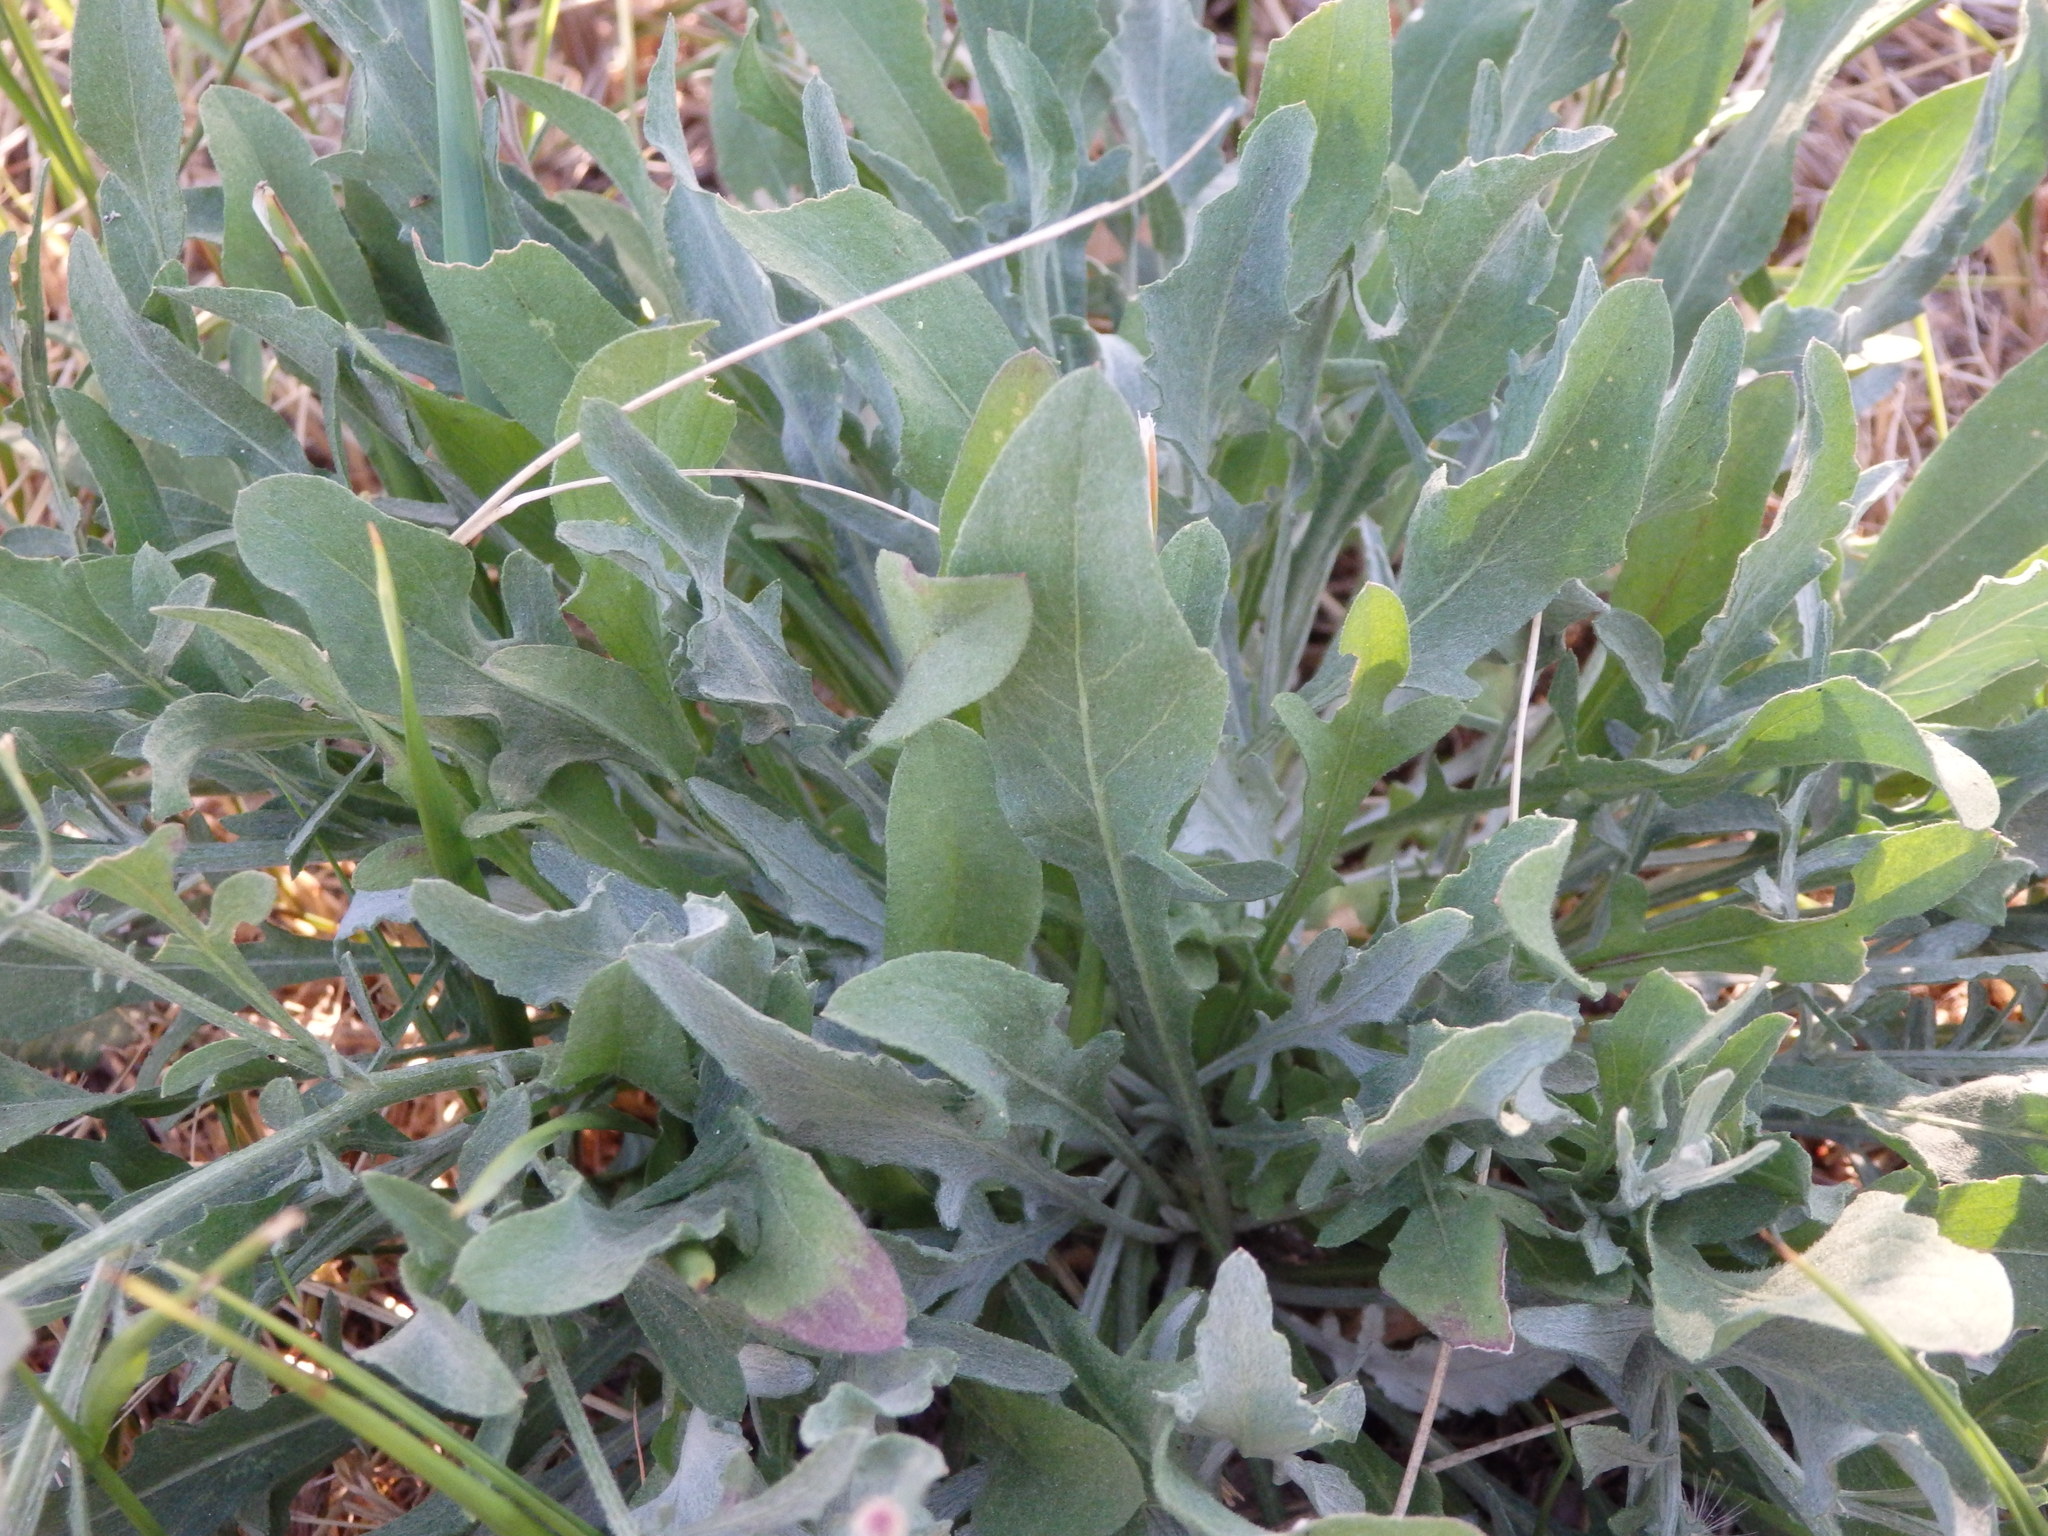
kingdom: Plantae
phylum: Tracheophyta
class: Magnoliopsida
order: Asterales
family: Asteraceae
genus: Centaurea
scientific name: Centaurea triumfettii
